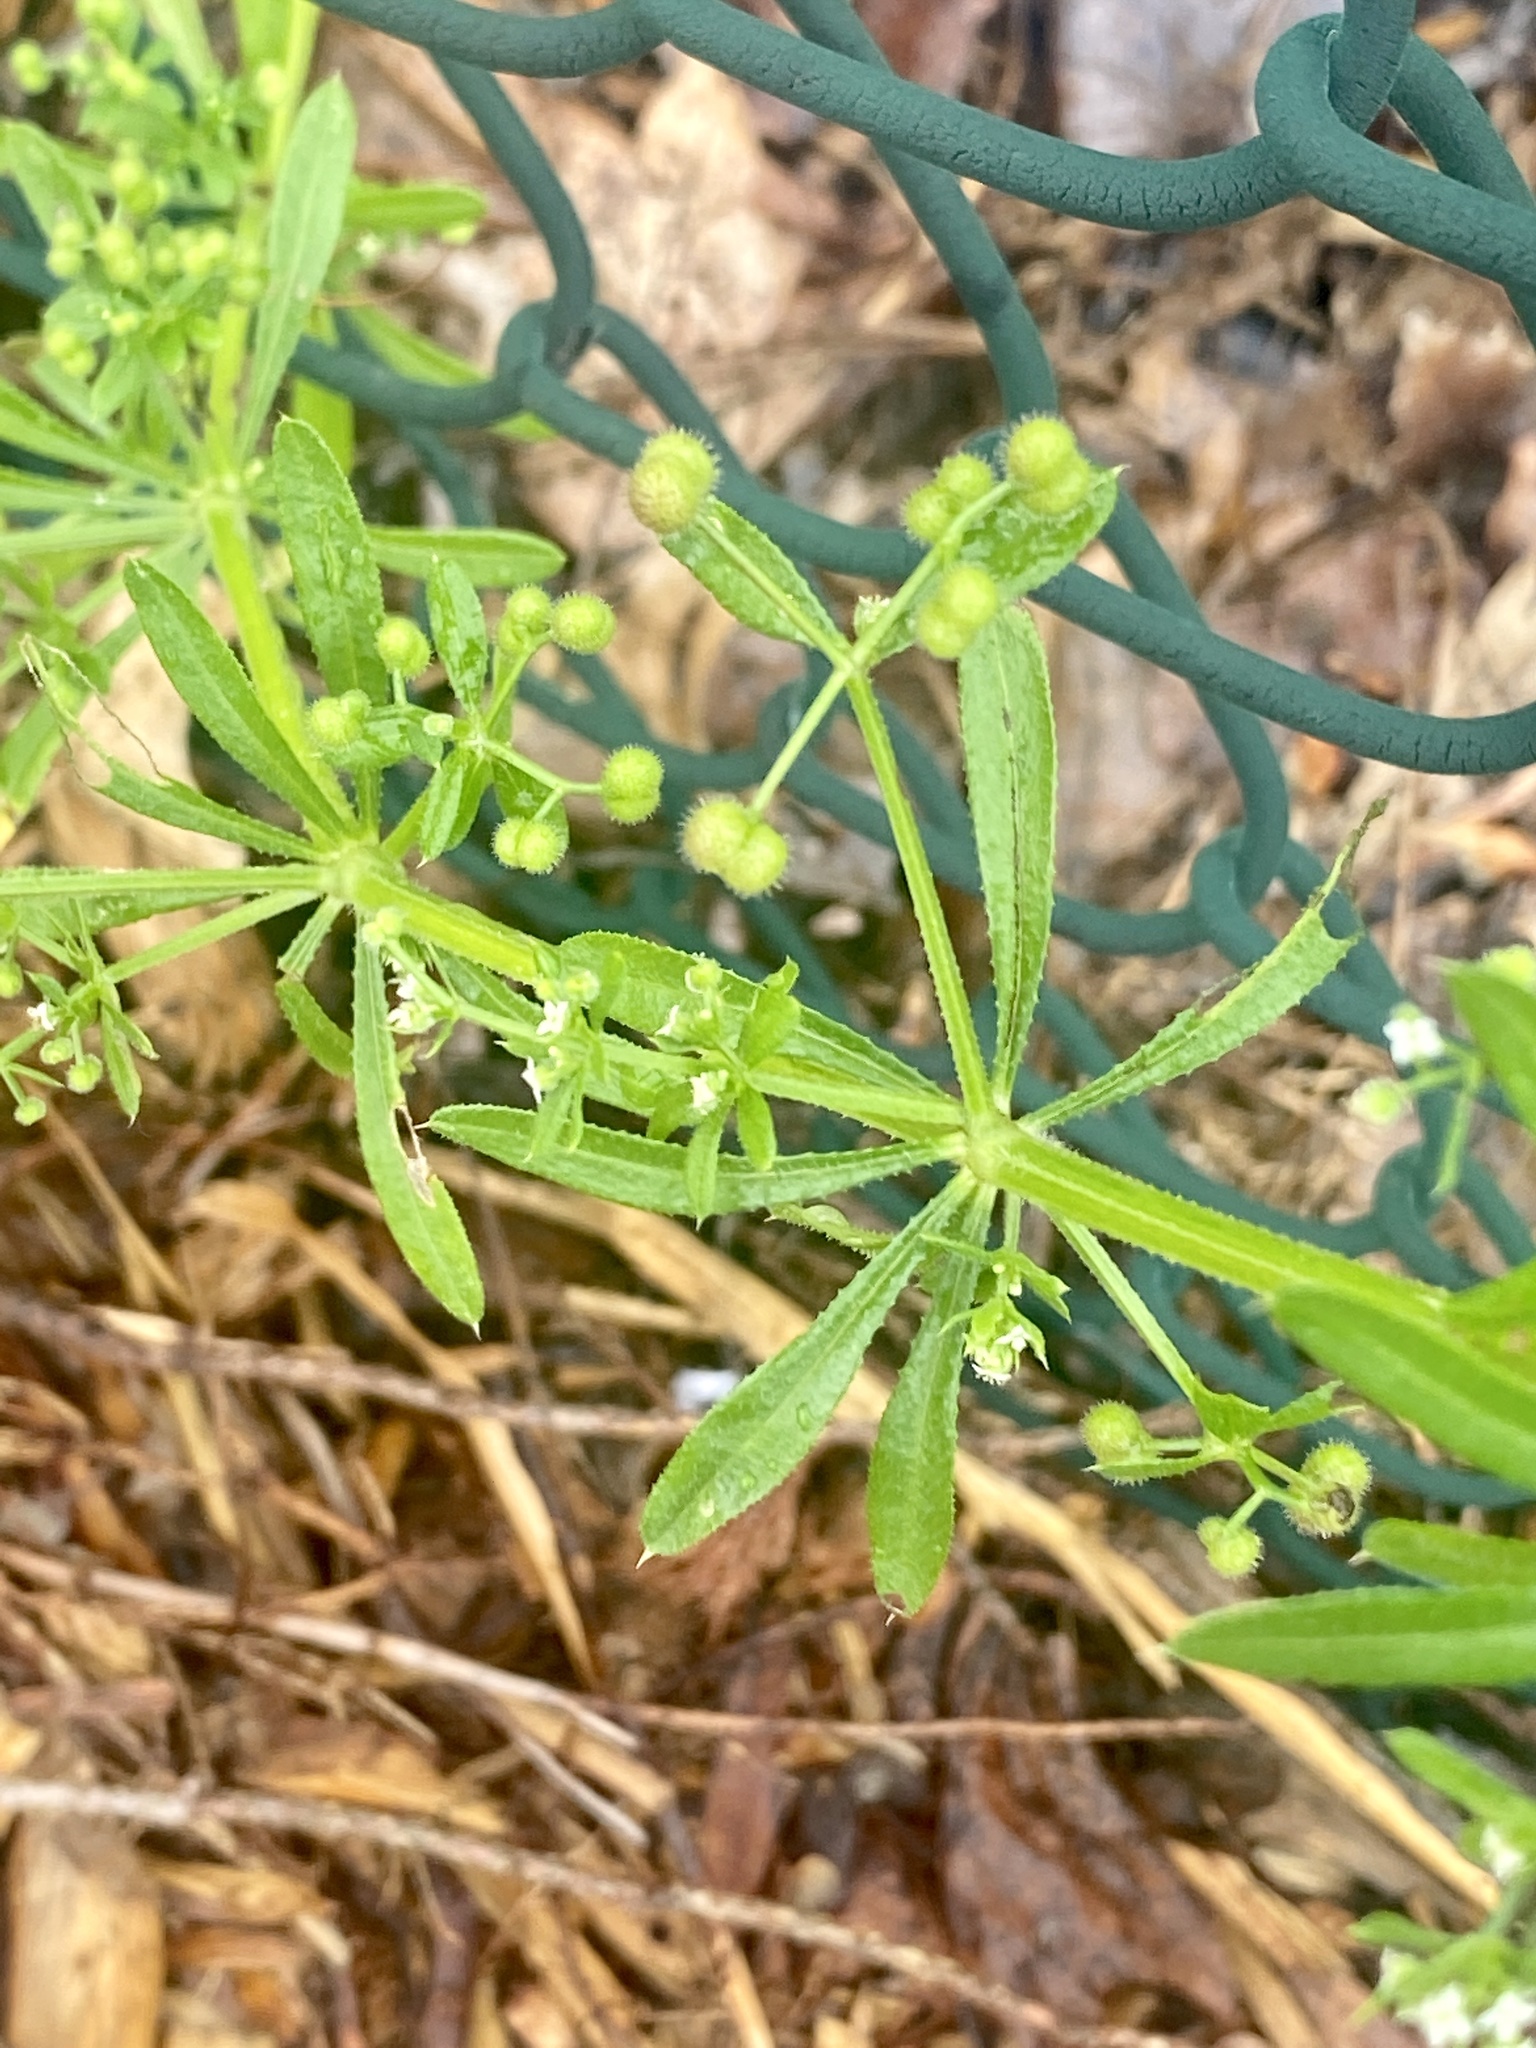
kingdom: Plantae
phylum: Tracheophyta
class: Magnoliopsida
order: Gentianales
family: Rubiaceae
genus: Galium
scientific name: Galium aparine
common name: Cleavers
